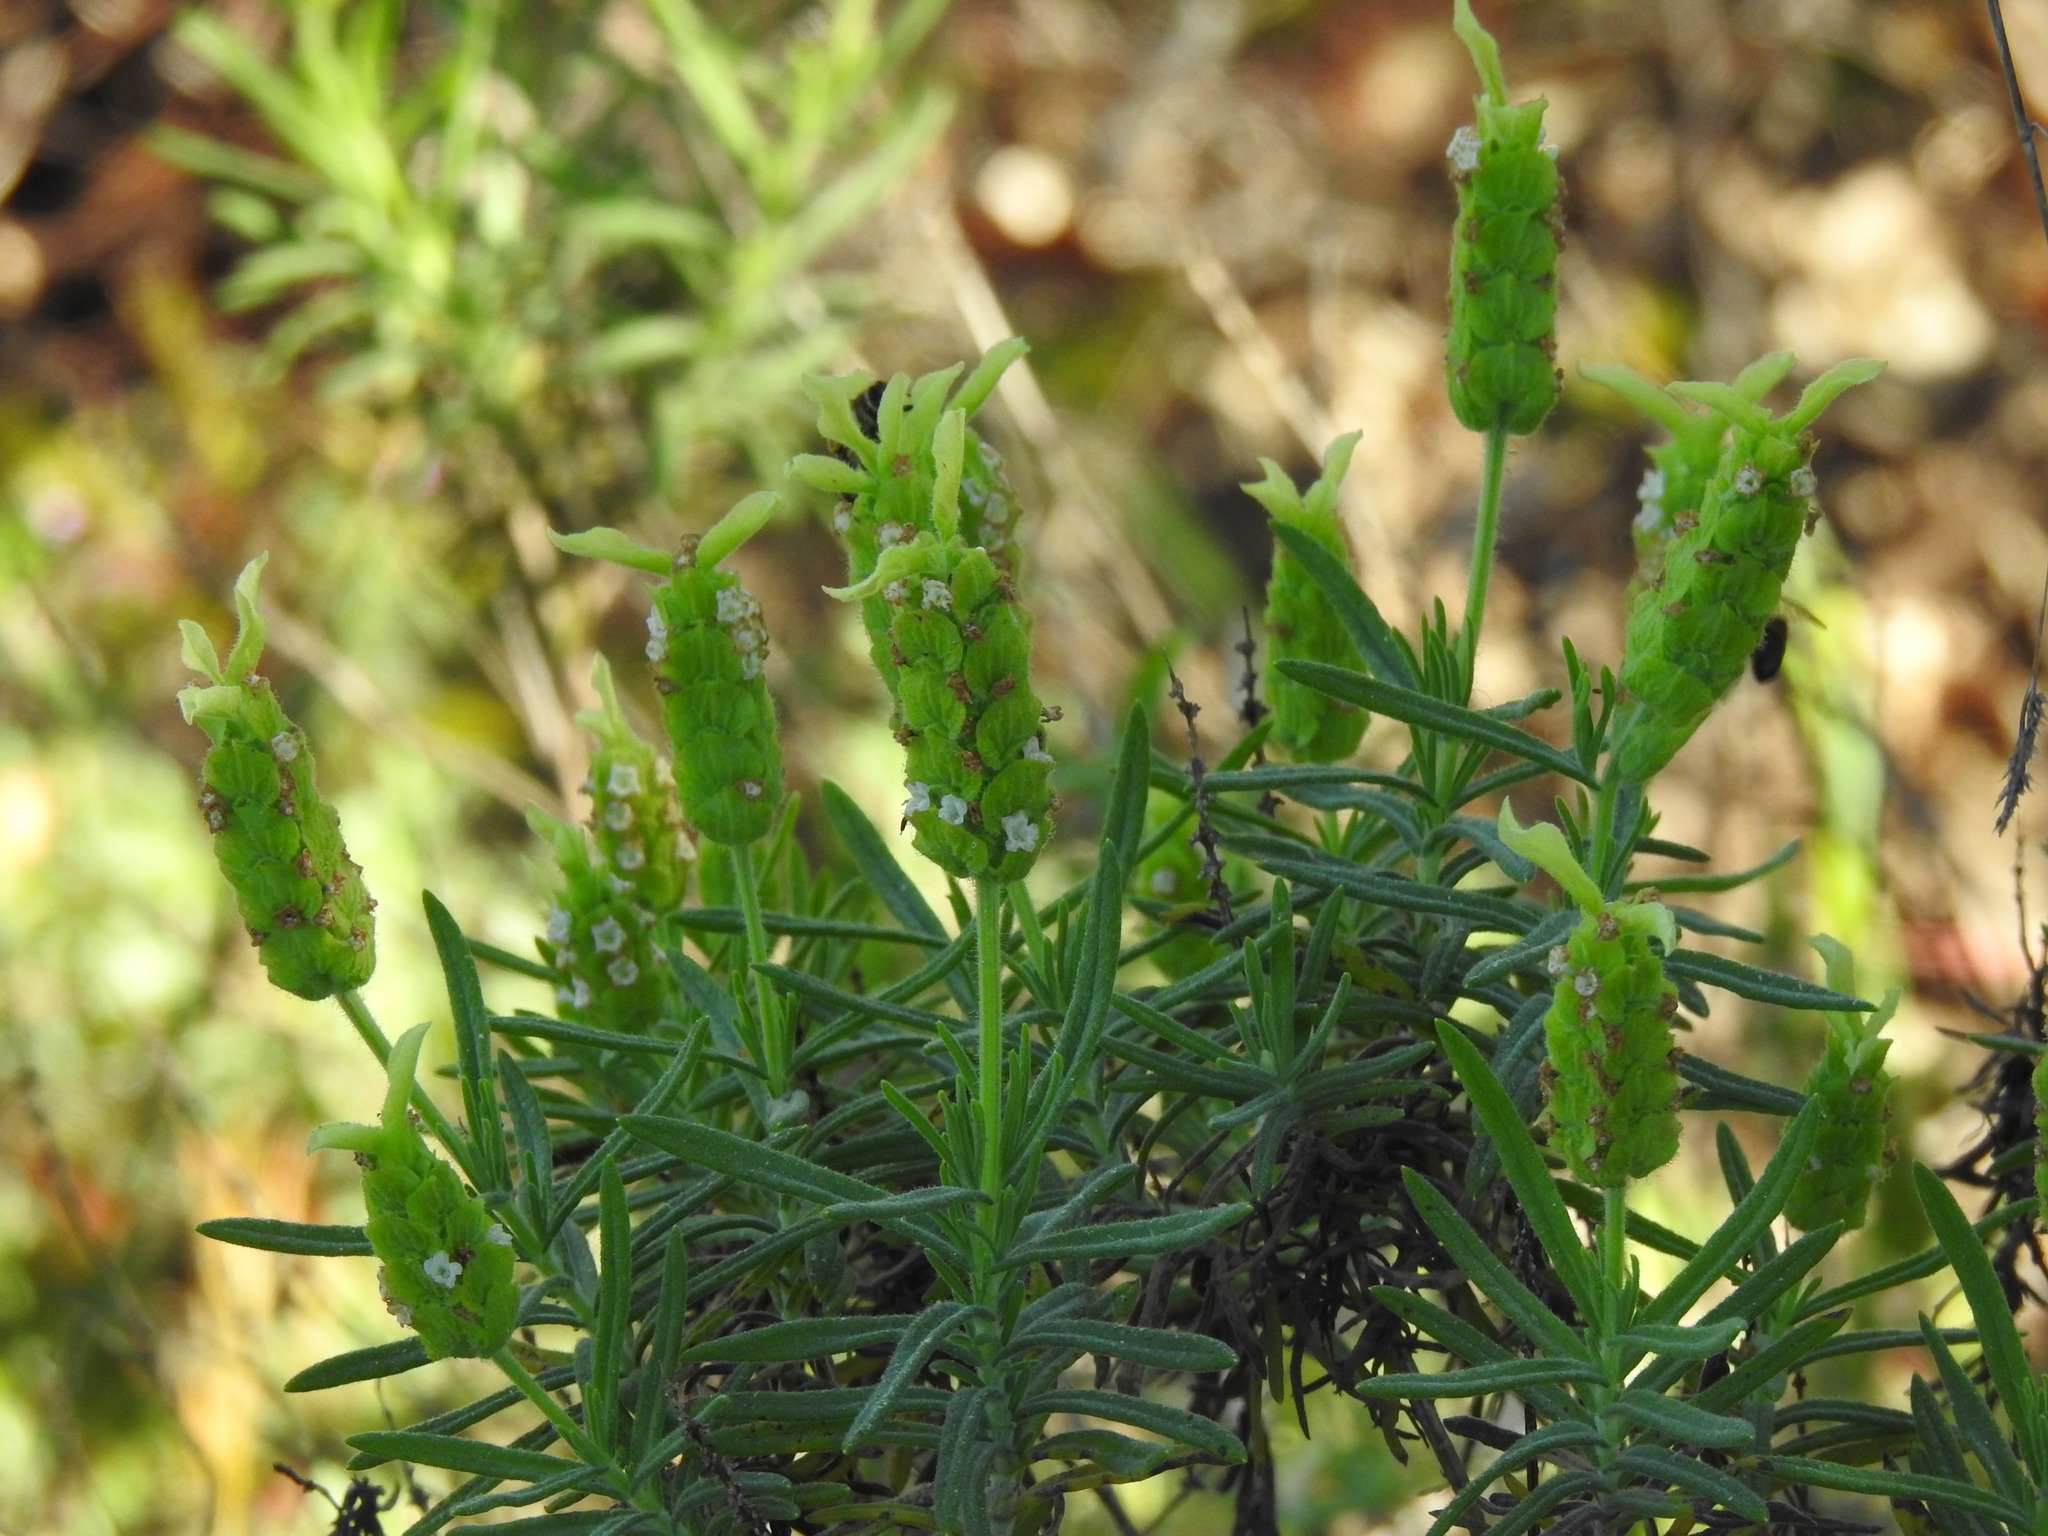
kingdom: Plantae
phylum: Tracheophyta
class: Magnoliopsida
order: Lamiales
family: Lamiaceae
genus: Lavandula
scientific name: Lavandula viridis
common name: Green spanish lavender
